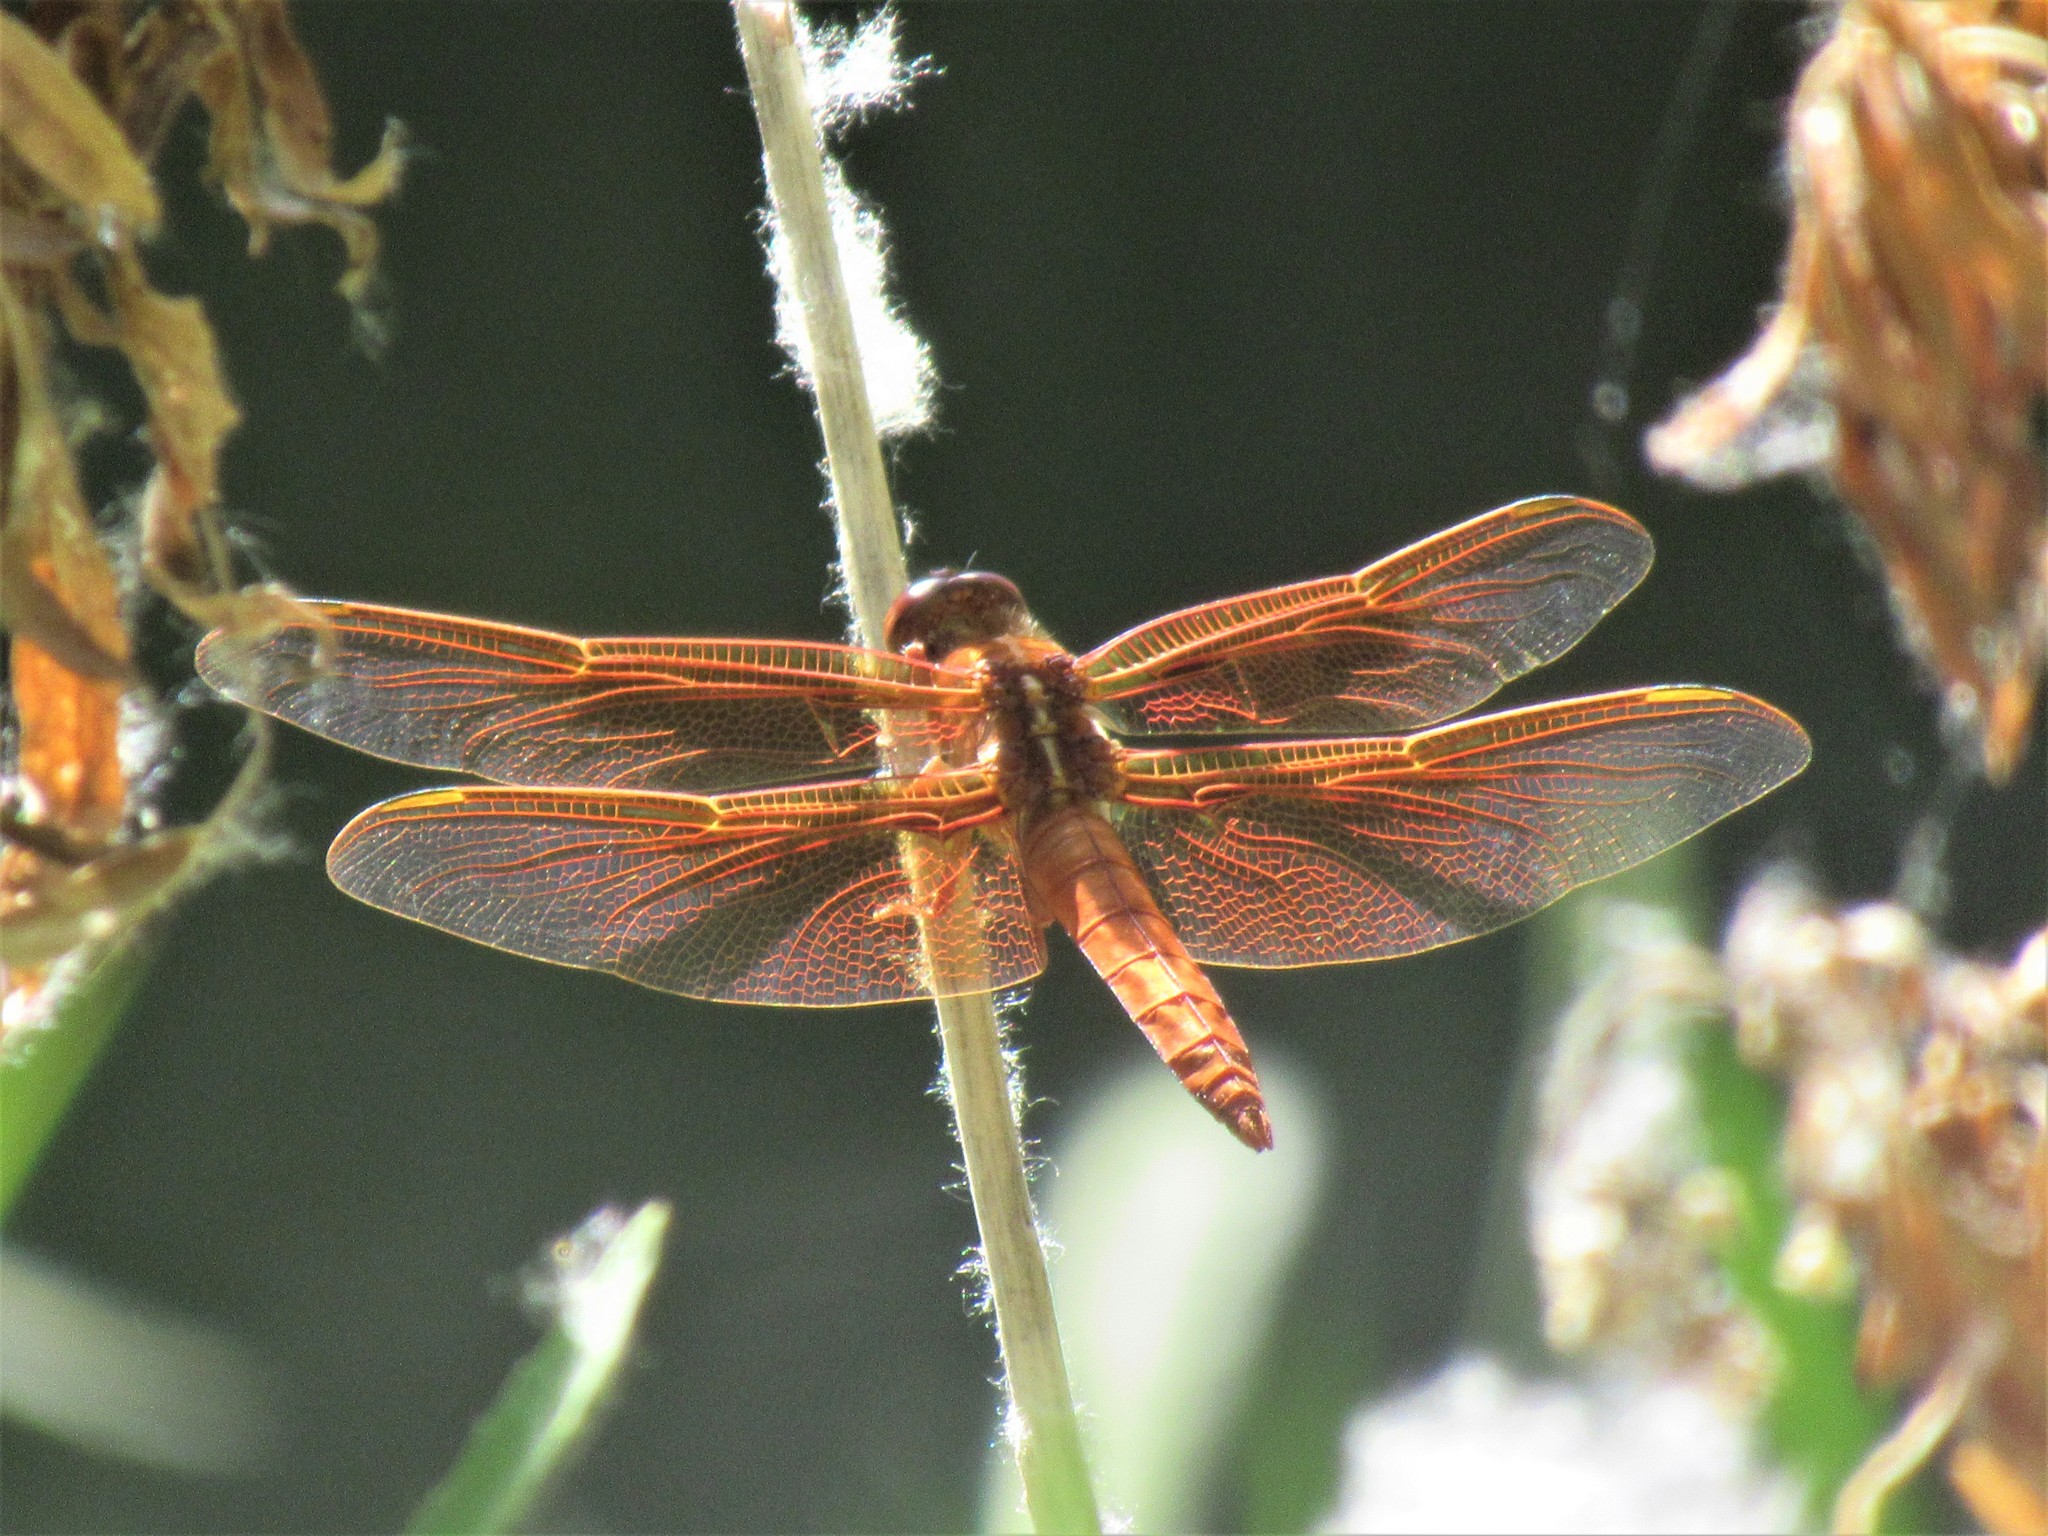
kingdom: Animalia
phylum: Arthropoda
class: Insecta
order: Odonata
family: Libellulidae
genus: Libellula
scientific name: Libellula saturata
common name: Flame skimmer
